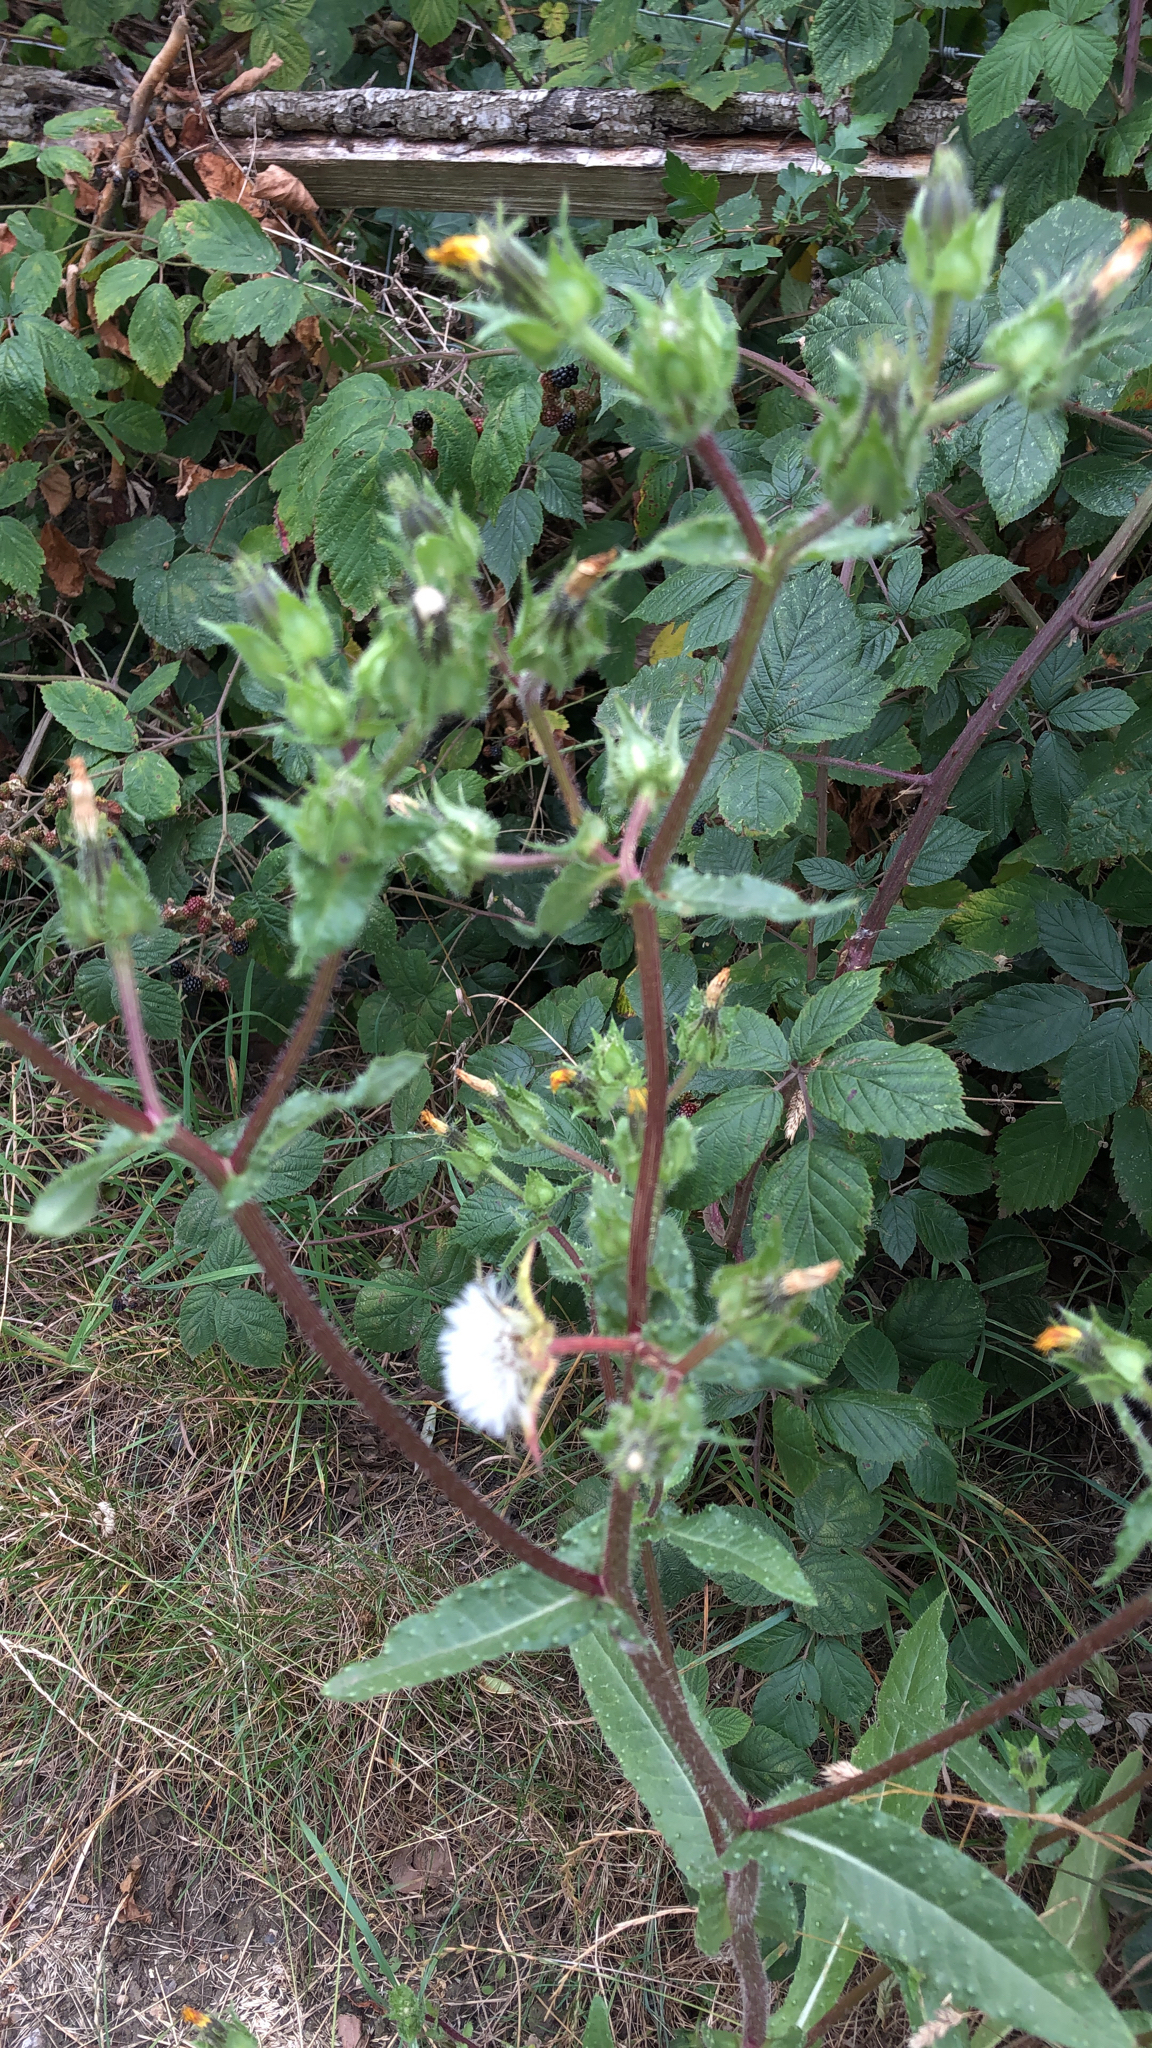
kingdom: Plantae
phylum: Tracheophyta
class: Magnoliopsida
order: Asterales
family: Asteraceae
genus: Helminthotheca
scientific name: Helminthotheca echioides
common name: Ox-tongue
